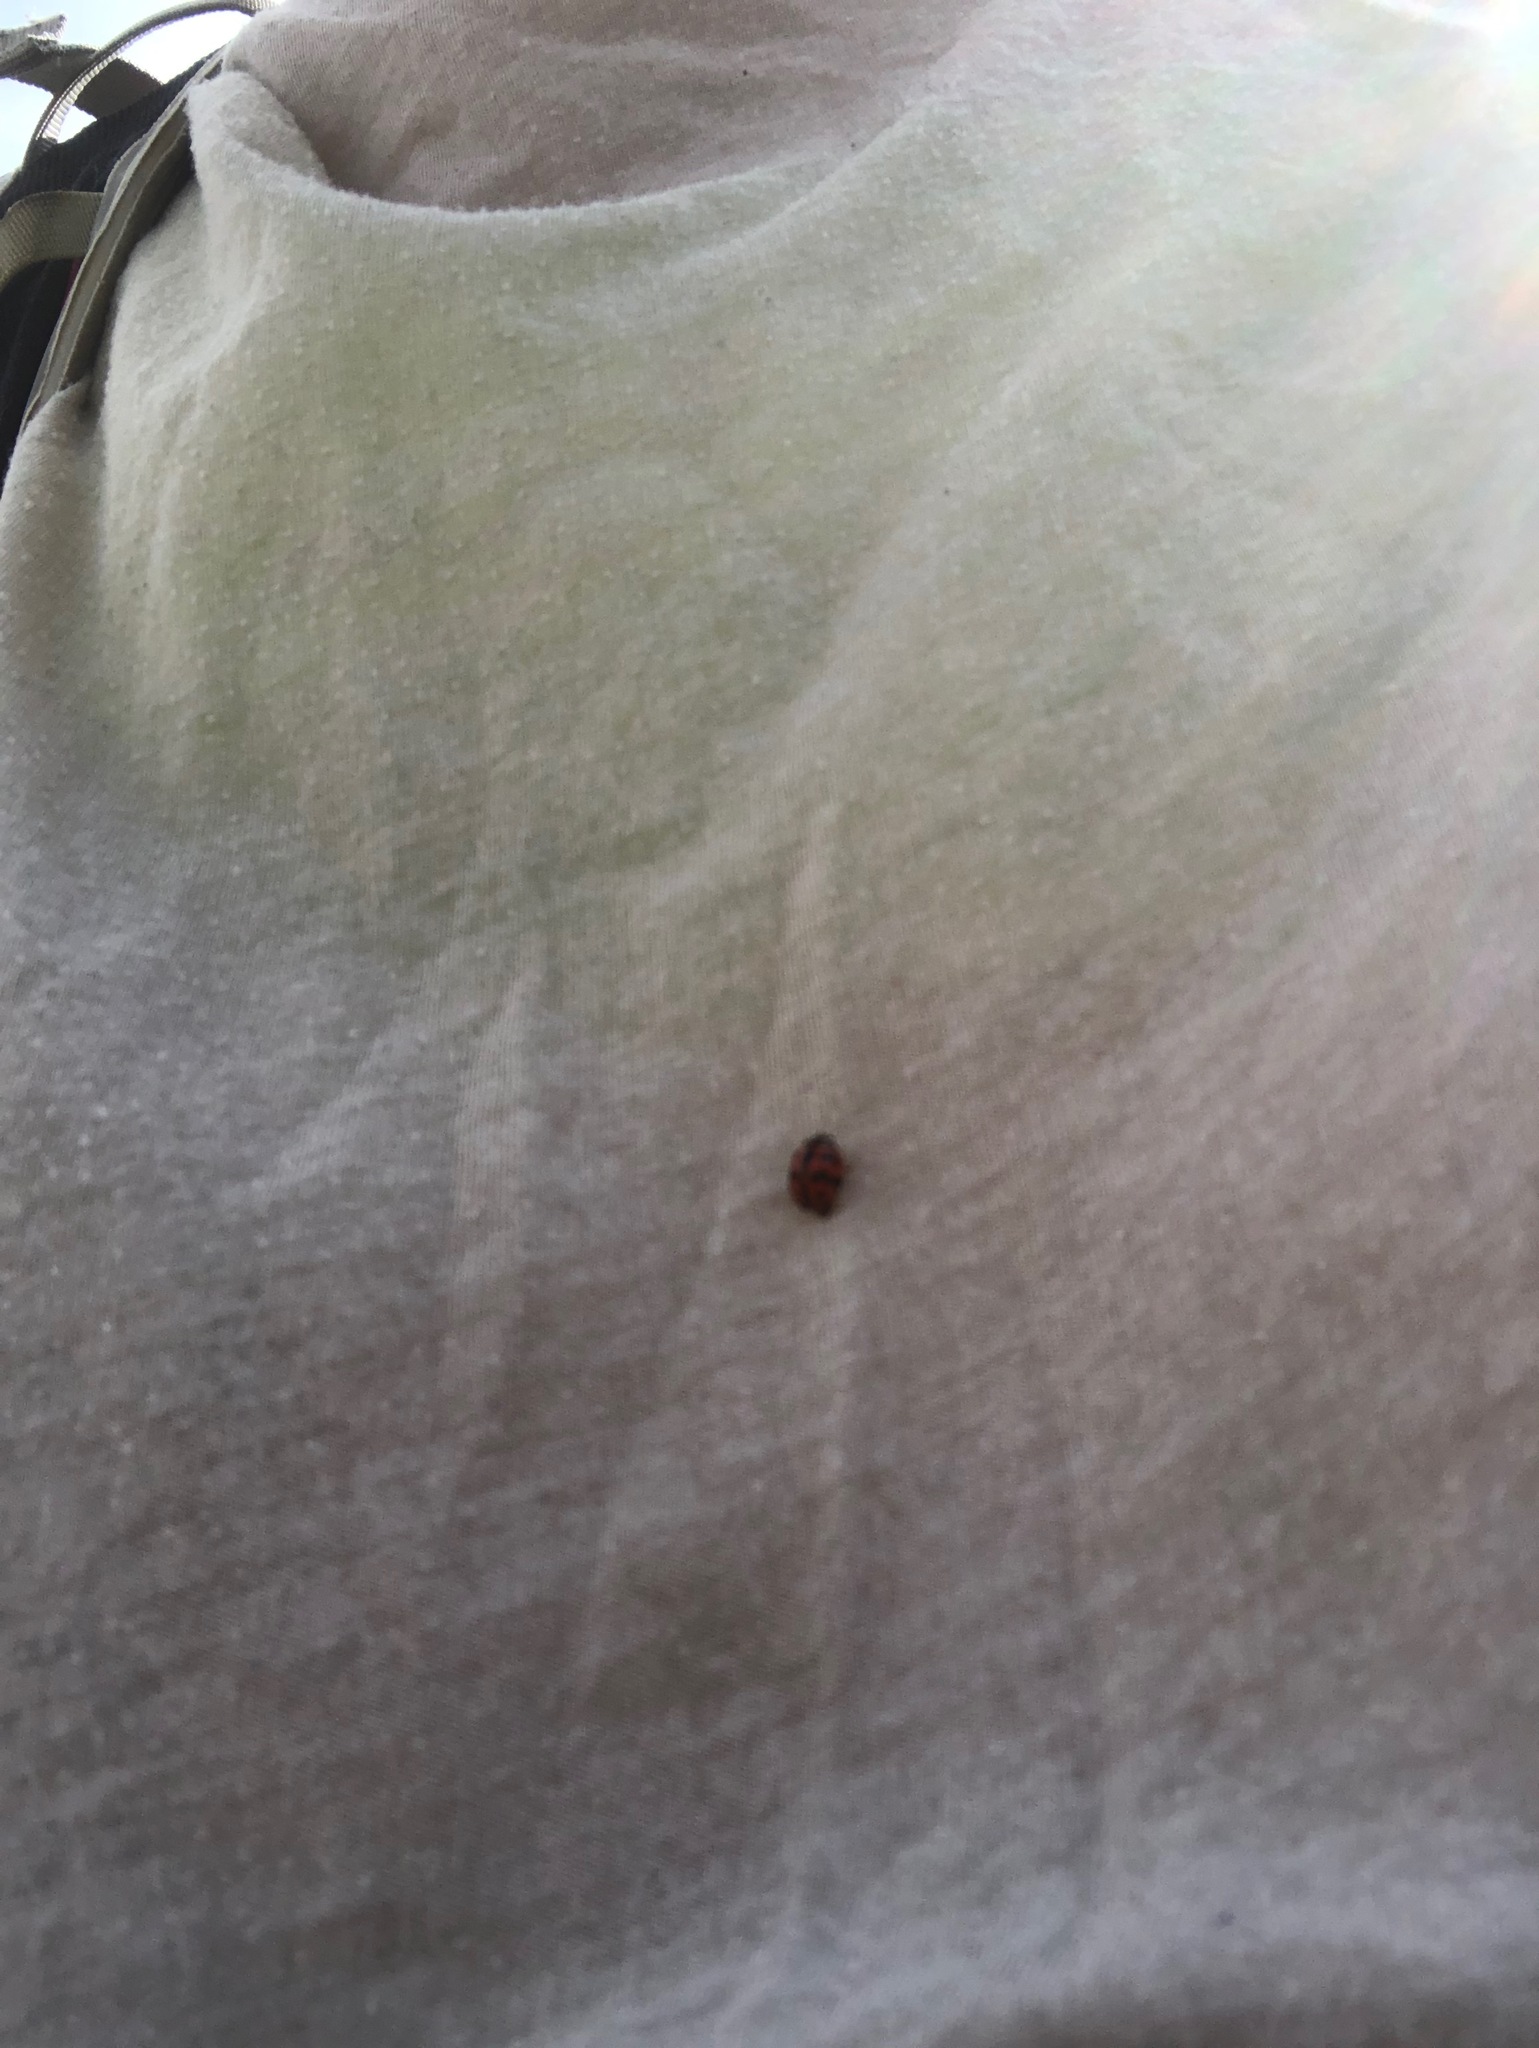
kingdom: Animalia
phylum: Arthropoda
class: Insecta
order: Coleoptera
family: Coccinellidae
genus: Cheilomenes
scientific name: Cheilomenes sexmaculata
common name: Ladybird beetle
